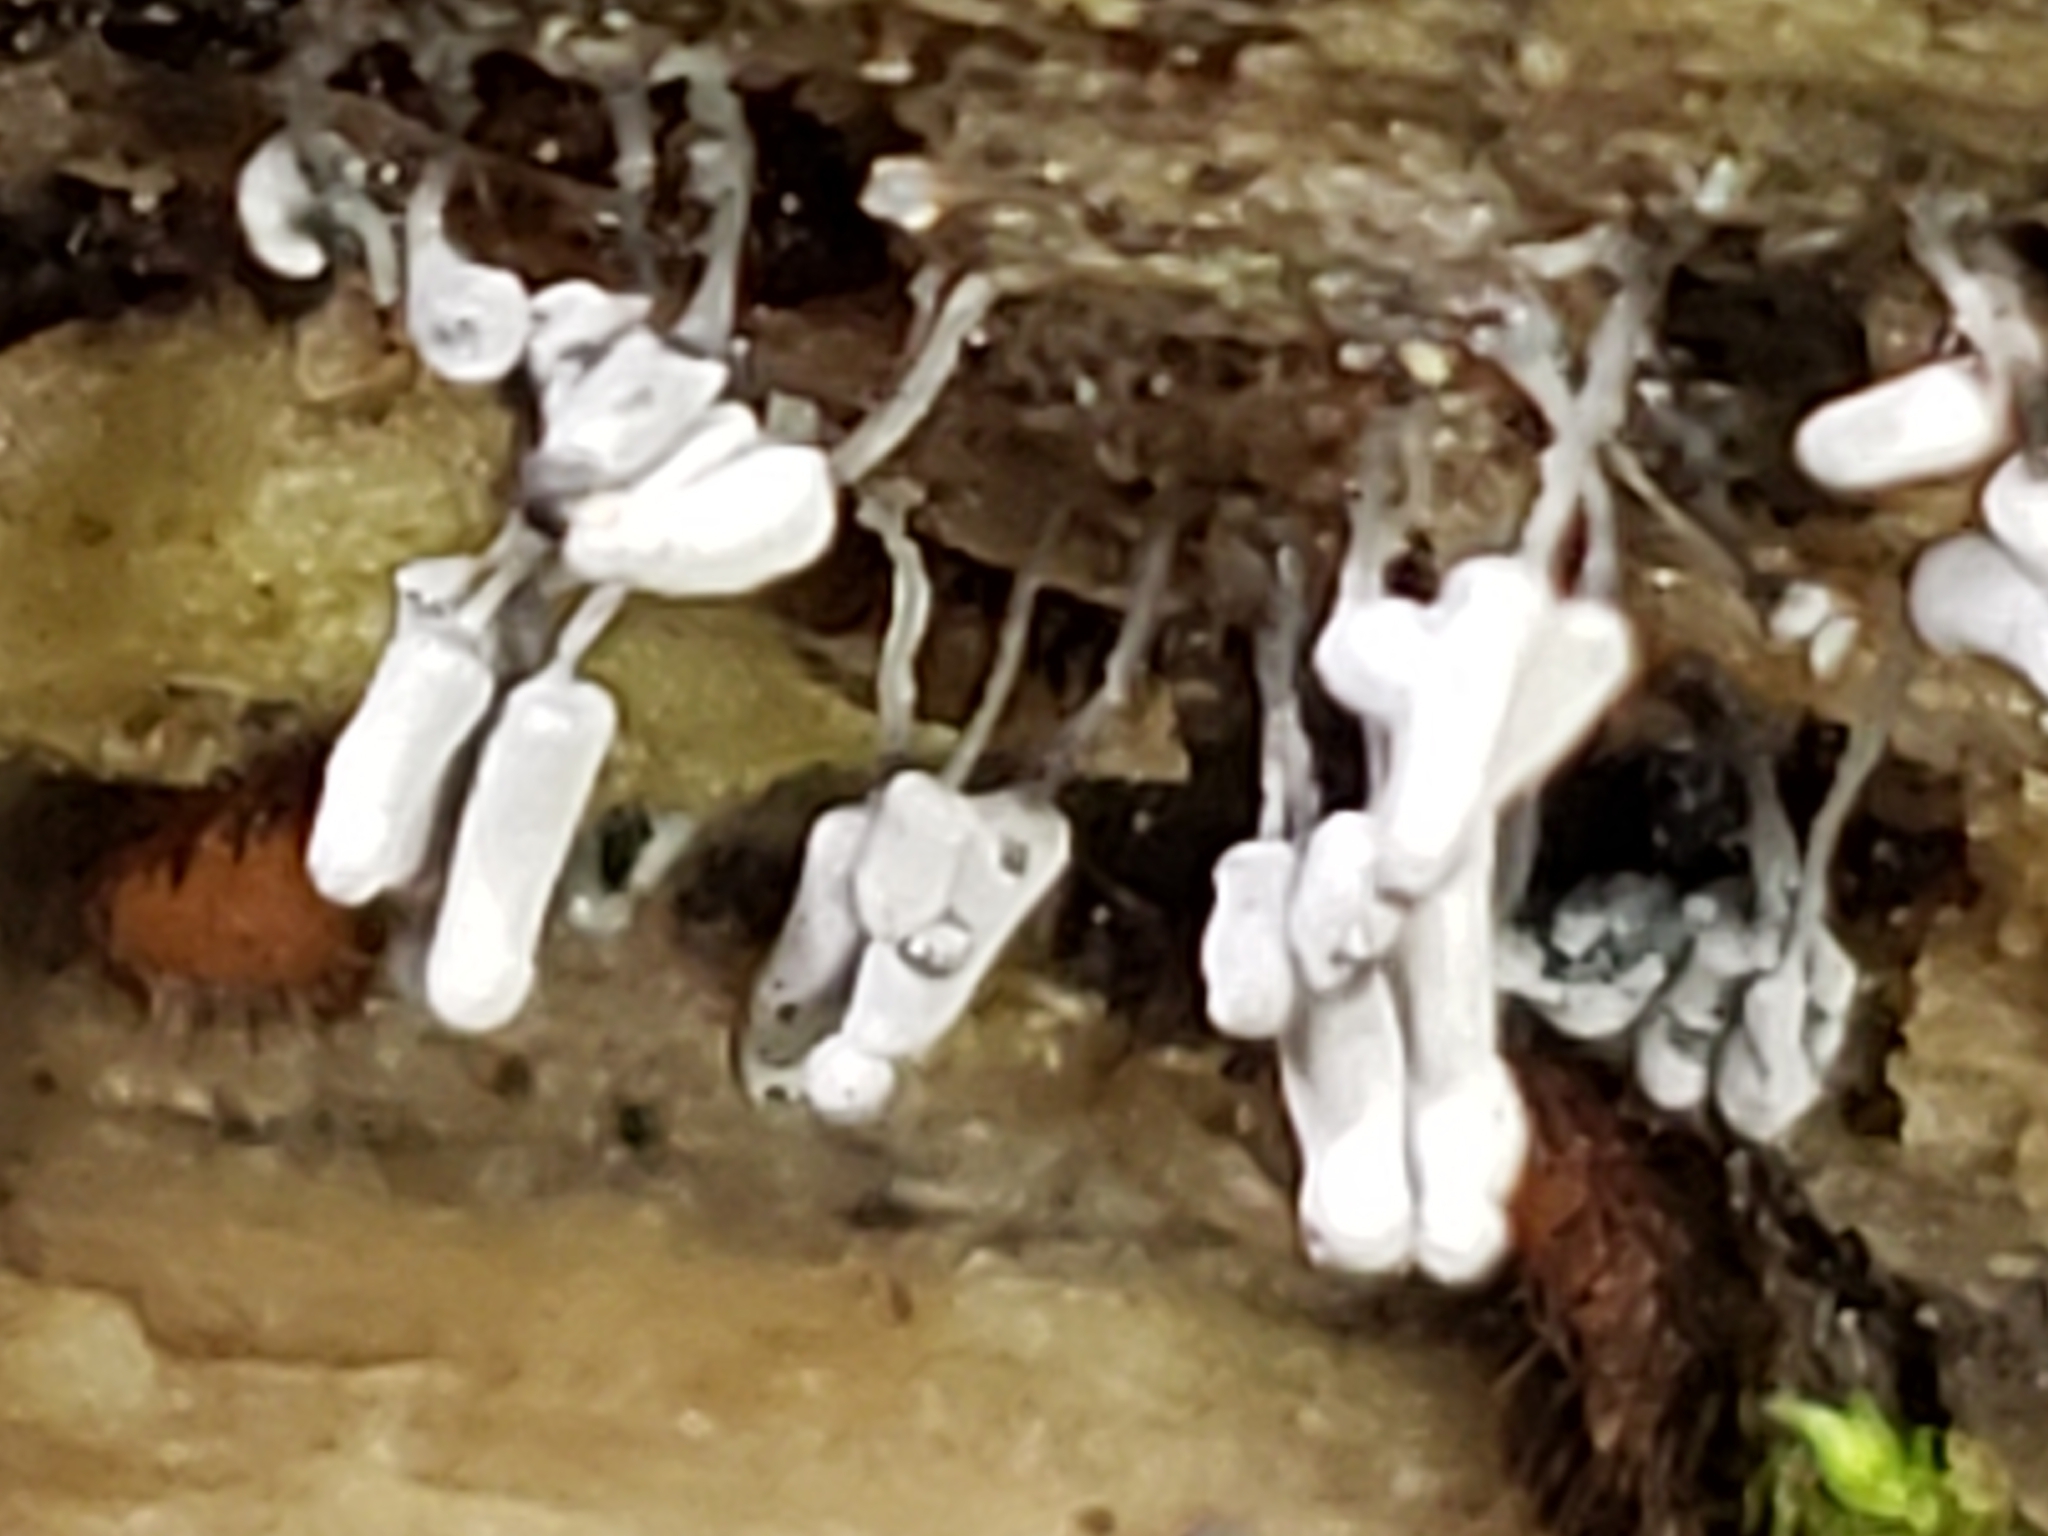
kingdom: Protozoa
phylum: Mycetozoa
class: Myxomycetes
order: Trichiales
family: Arcyriaceae
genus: Arcyria
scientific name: Arcyria cinerea
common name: White carnival candy slime mold
